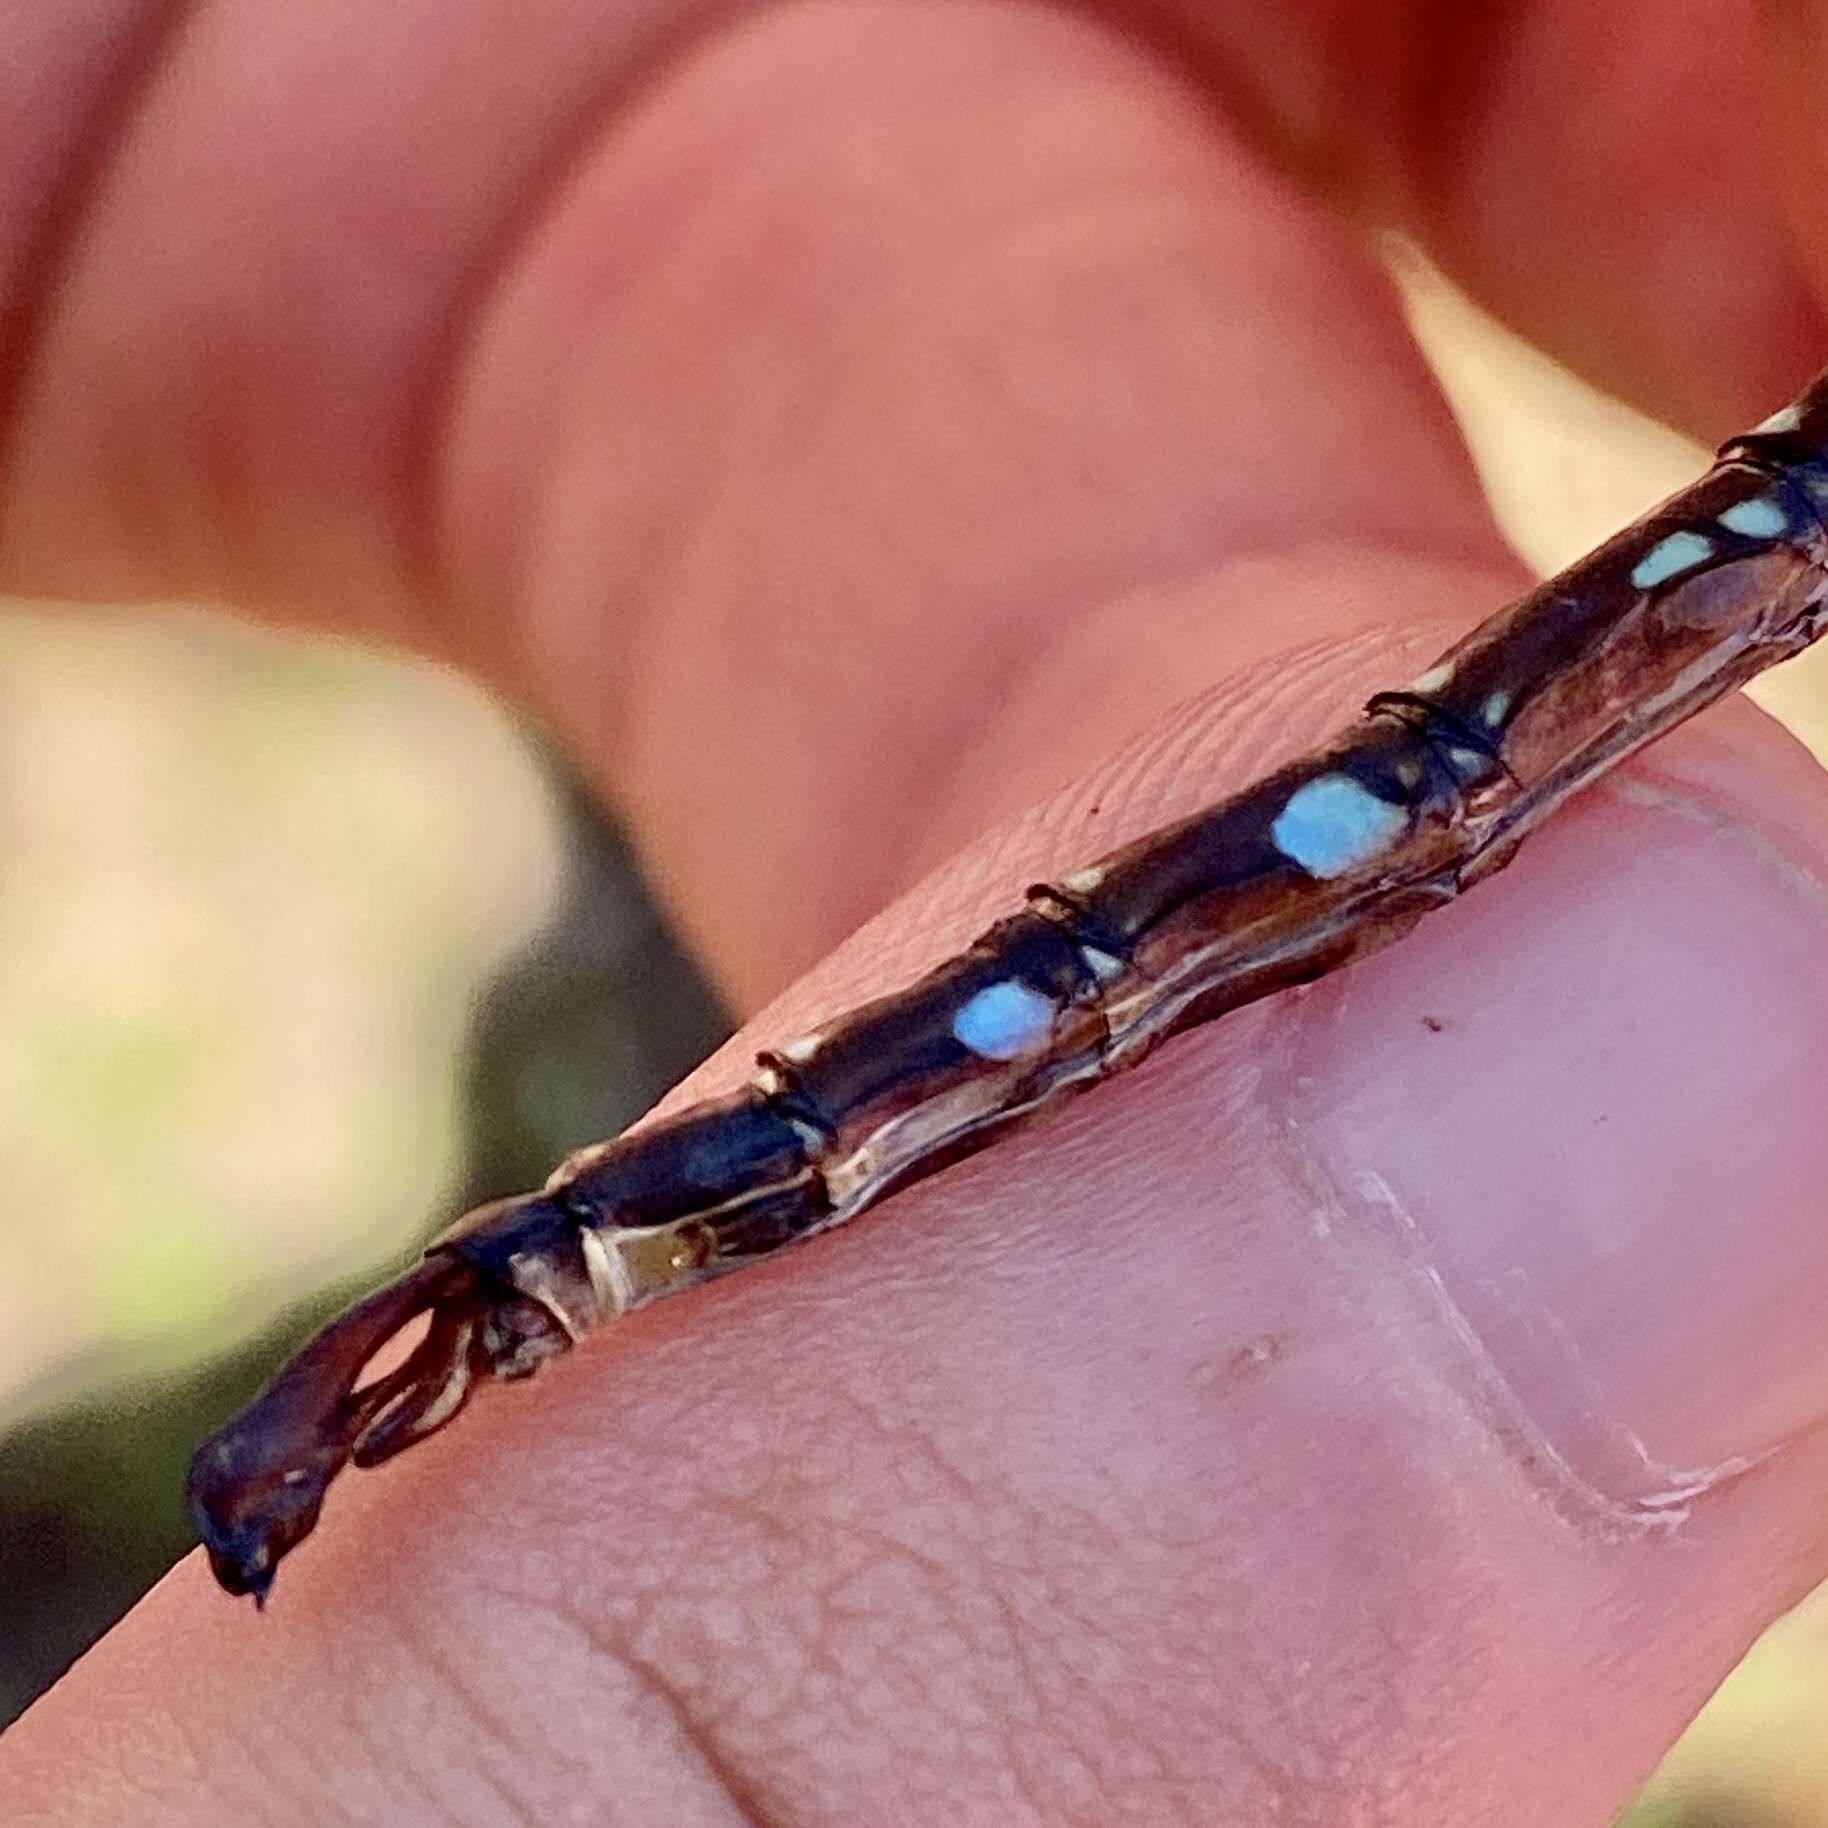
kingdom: Animalia
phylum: Arthropoda
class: Insecta
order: Odonata
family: Aeshnidae
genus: Aeshna
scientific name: Aeshna umbrosa
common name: Shadow darner
